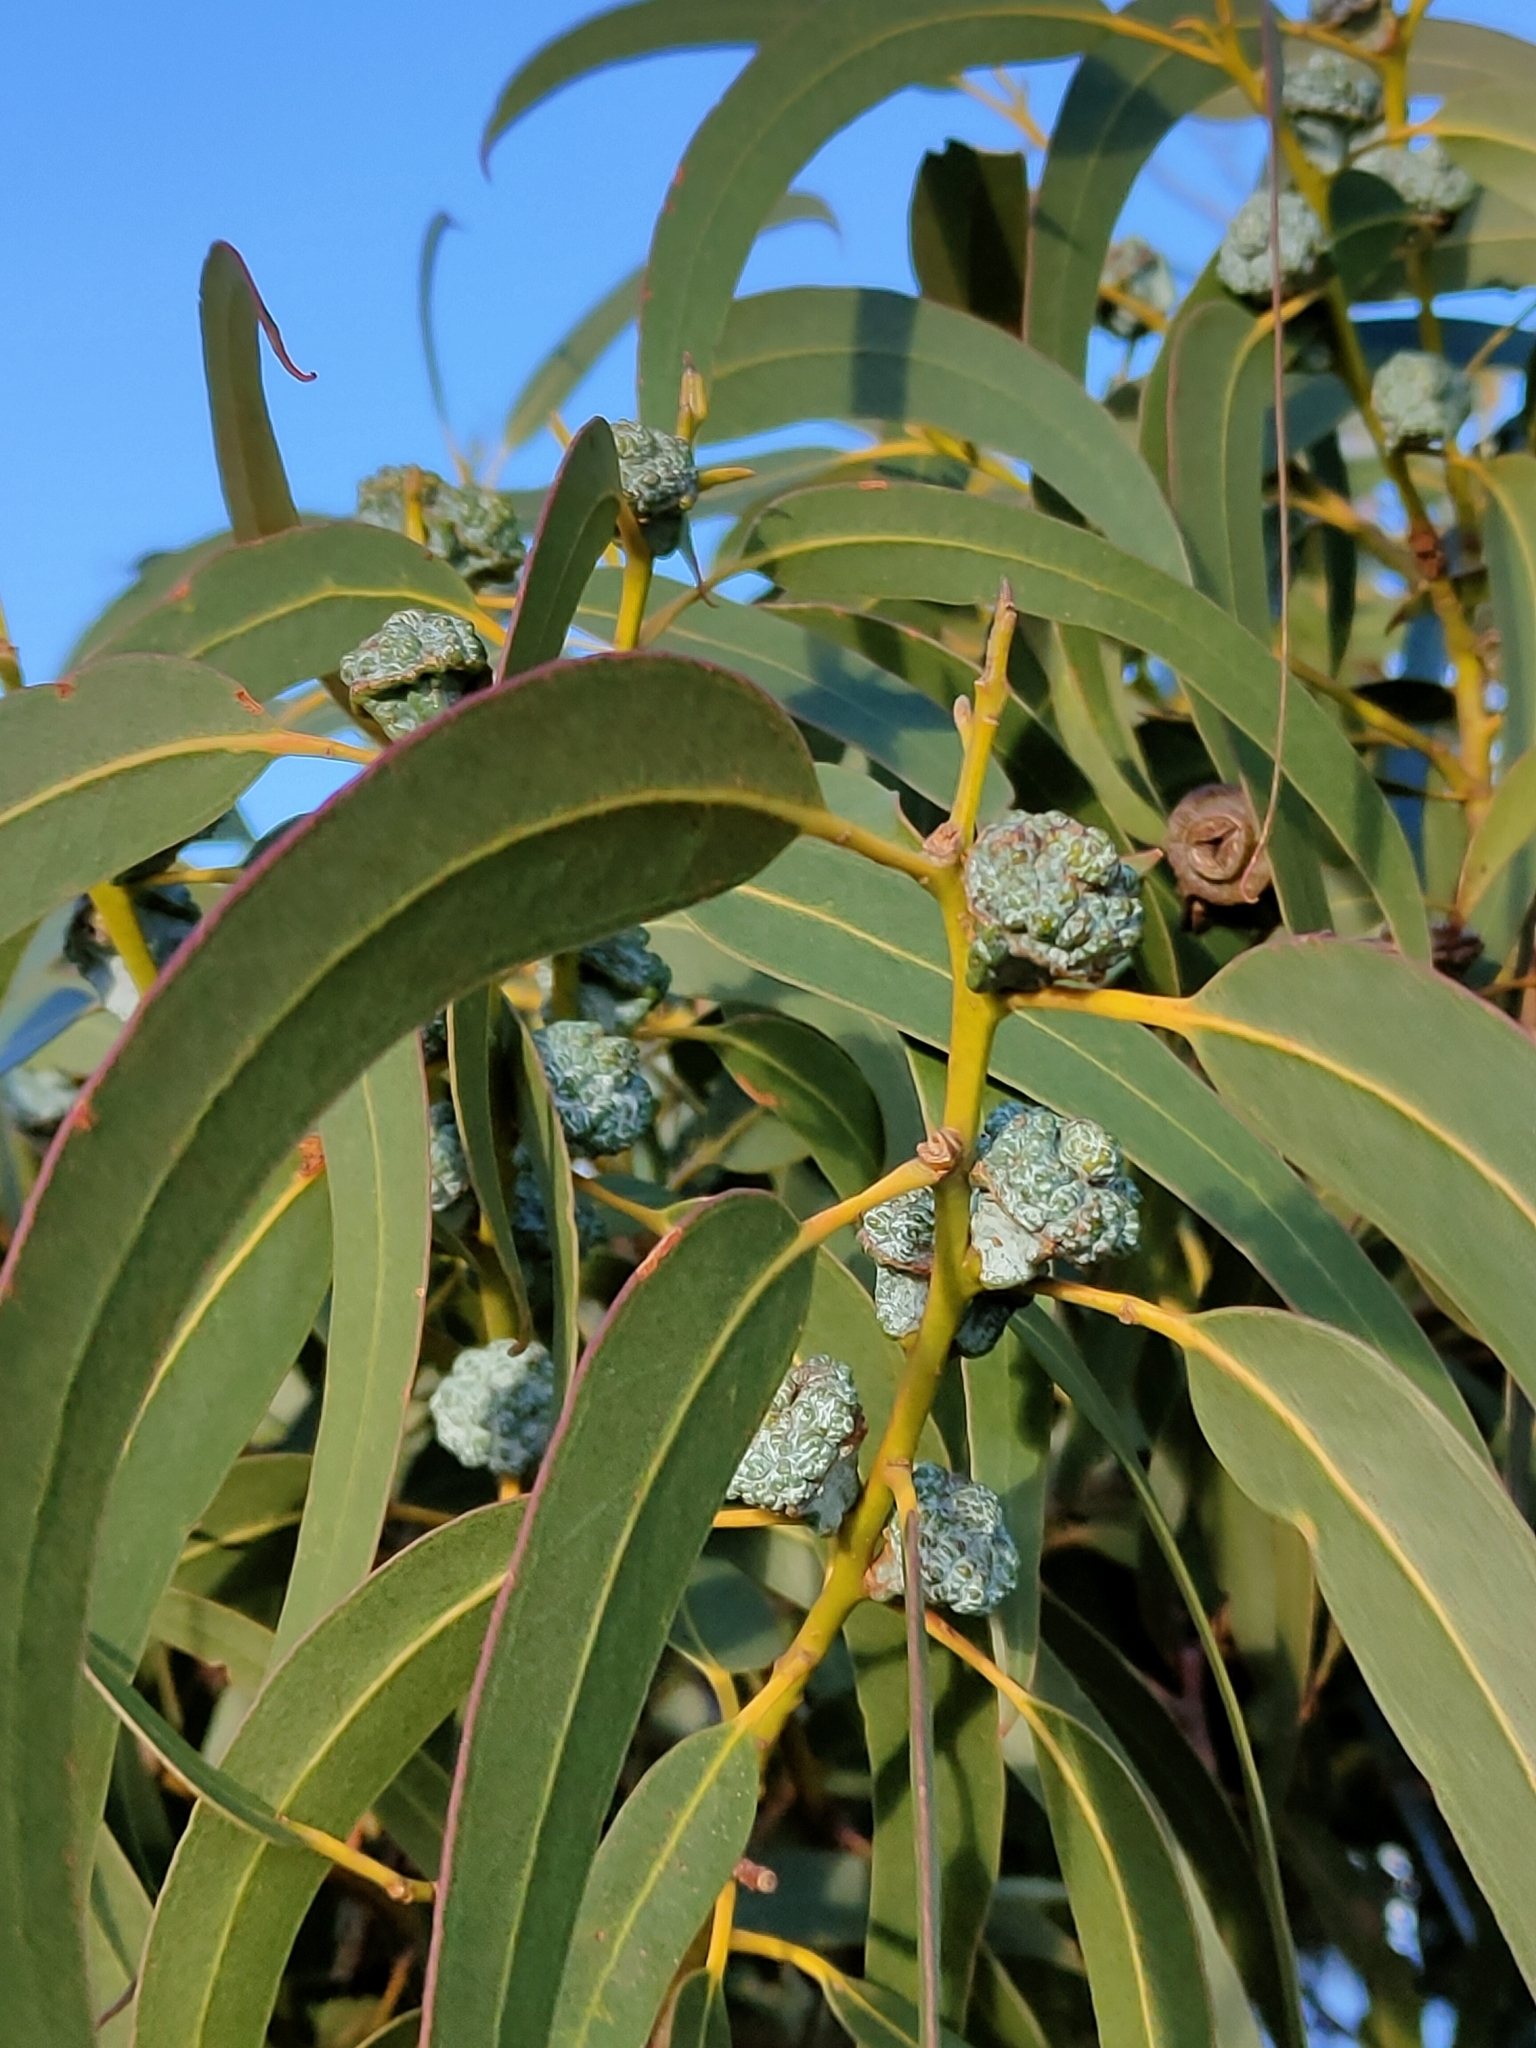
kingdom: Plantae
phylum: Tracheophyta
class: Magnoliopsida
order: Myrtales
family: Myrtaceae
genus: Eucalyptus
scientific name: Eucalyptus globulus
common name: Southern blue-gum
